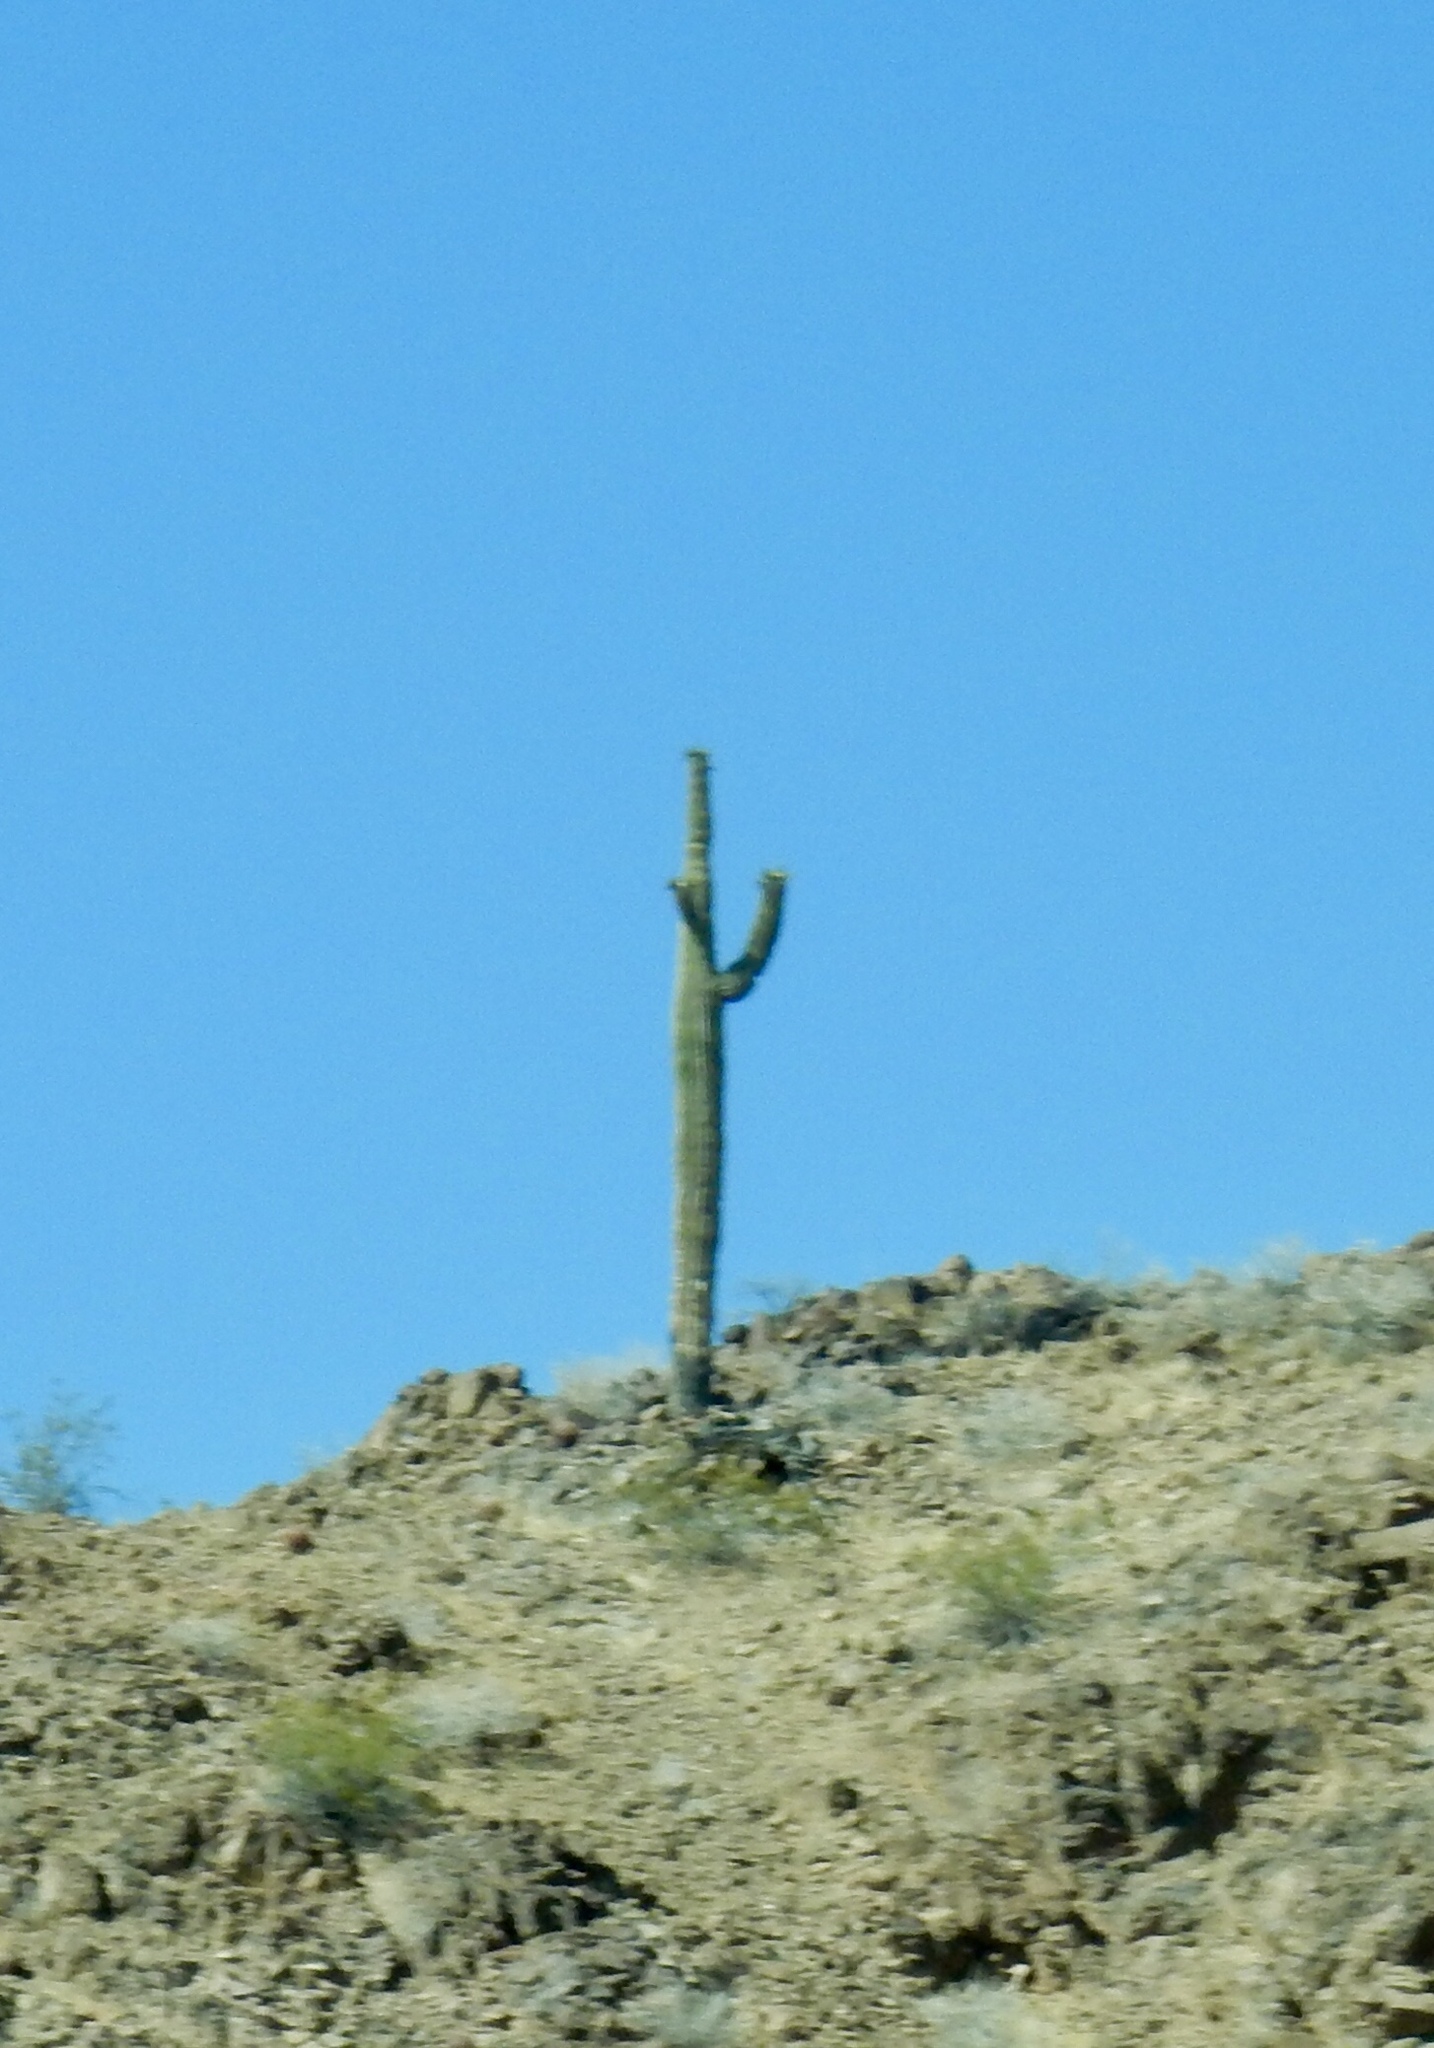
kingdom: Plantae
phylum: Tracheophyta
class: Magnoliopsida
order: Caryophyllales
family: Cactaceae
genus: Carnegiea
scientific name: Carnegiea gigantea
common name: Saguaro
